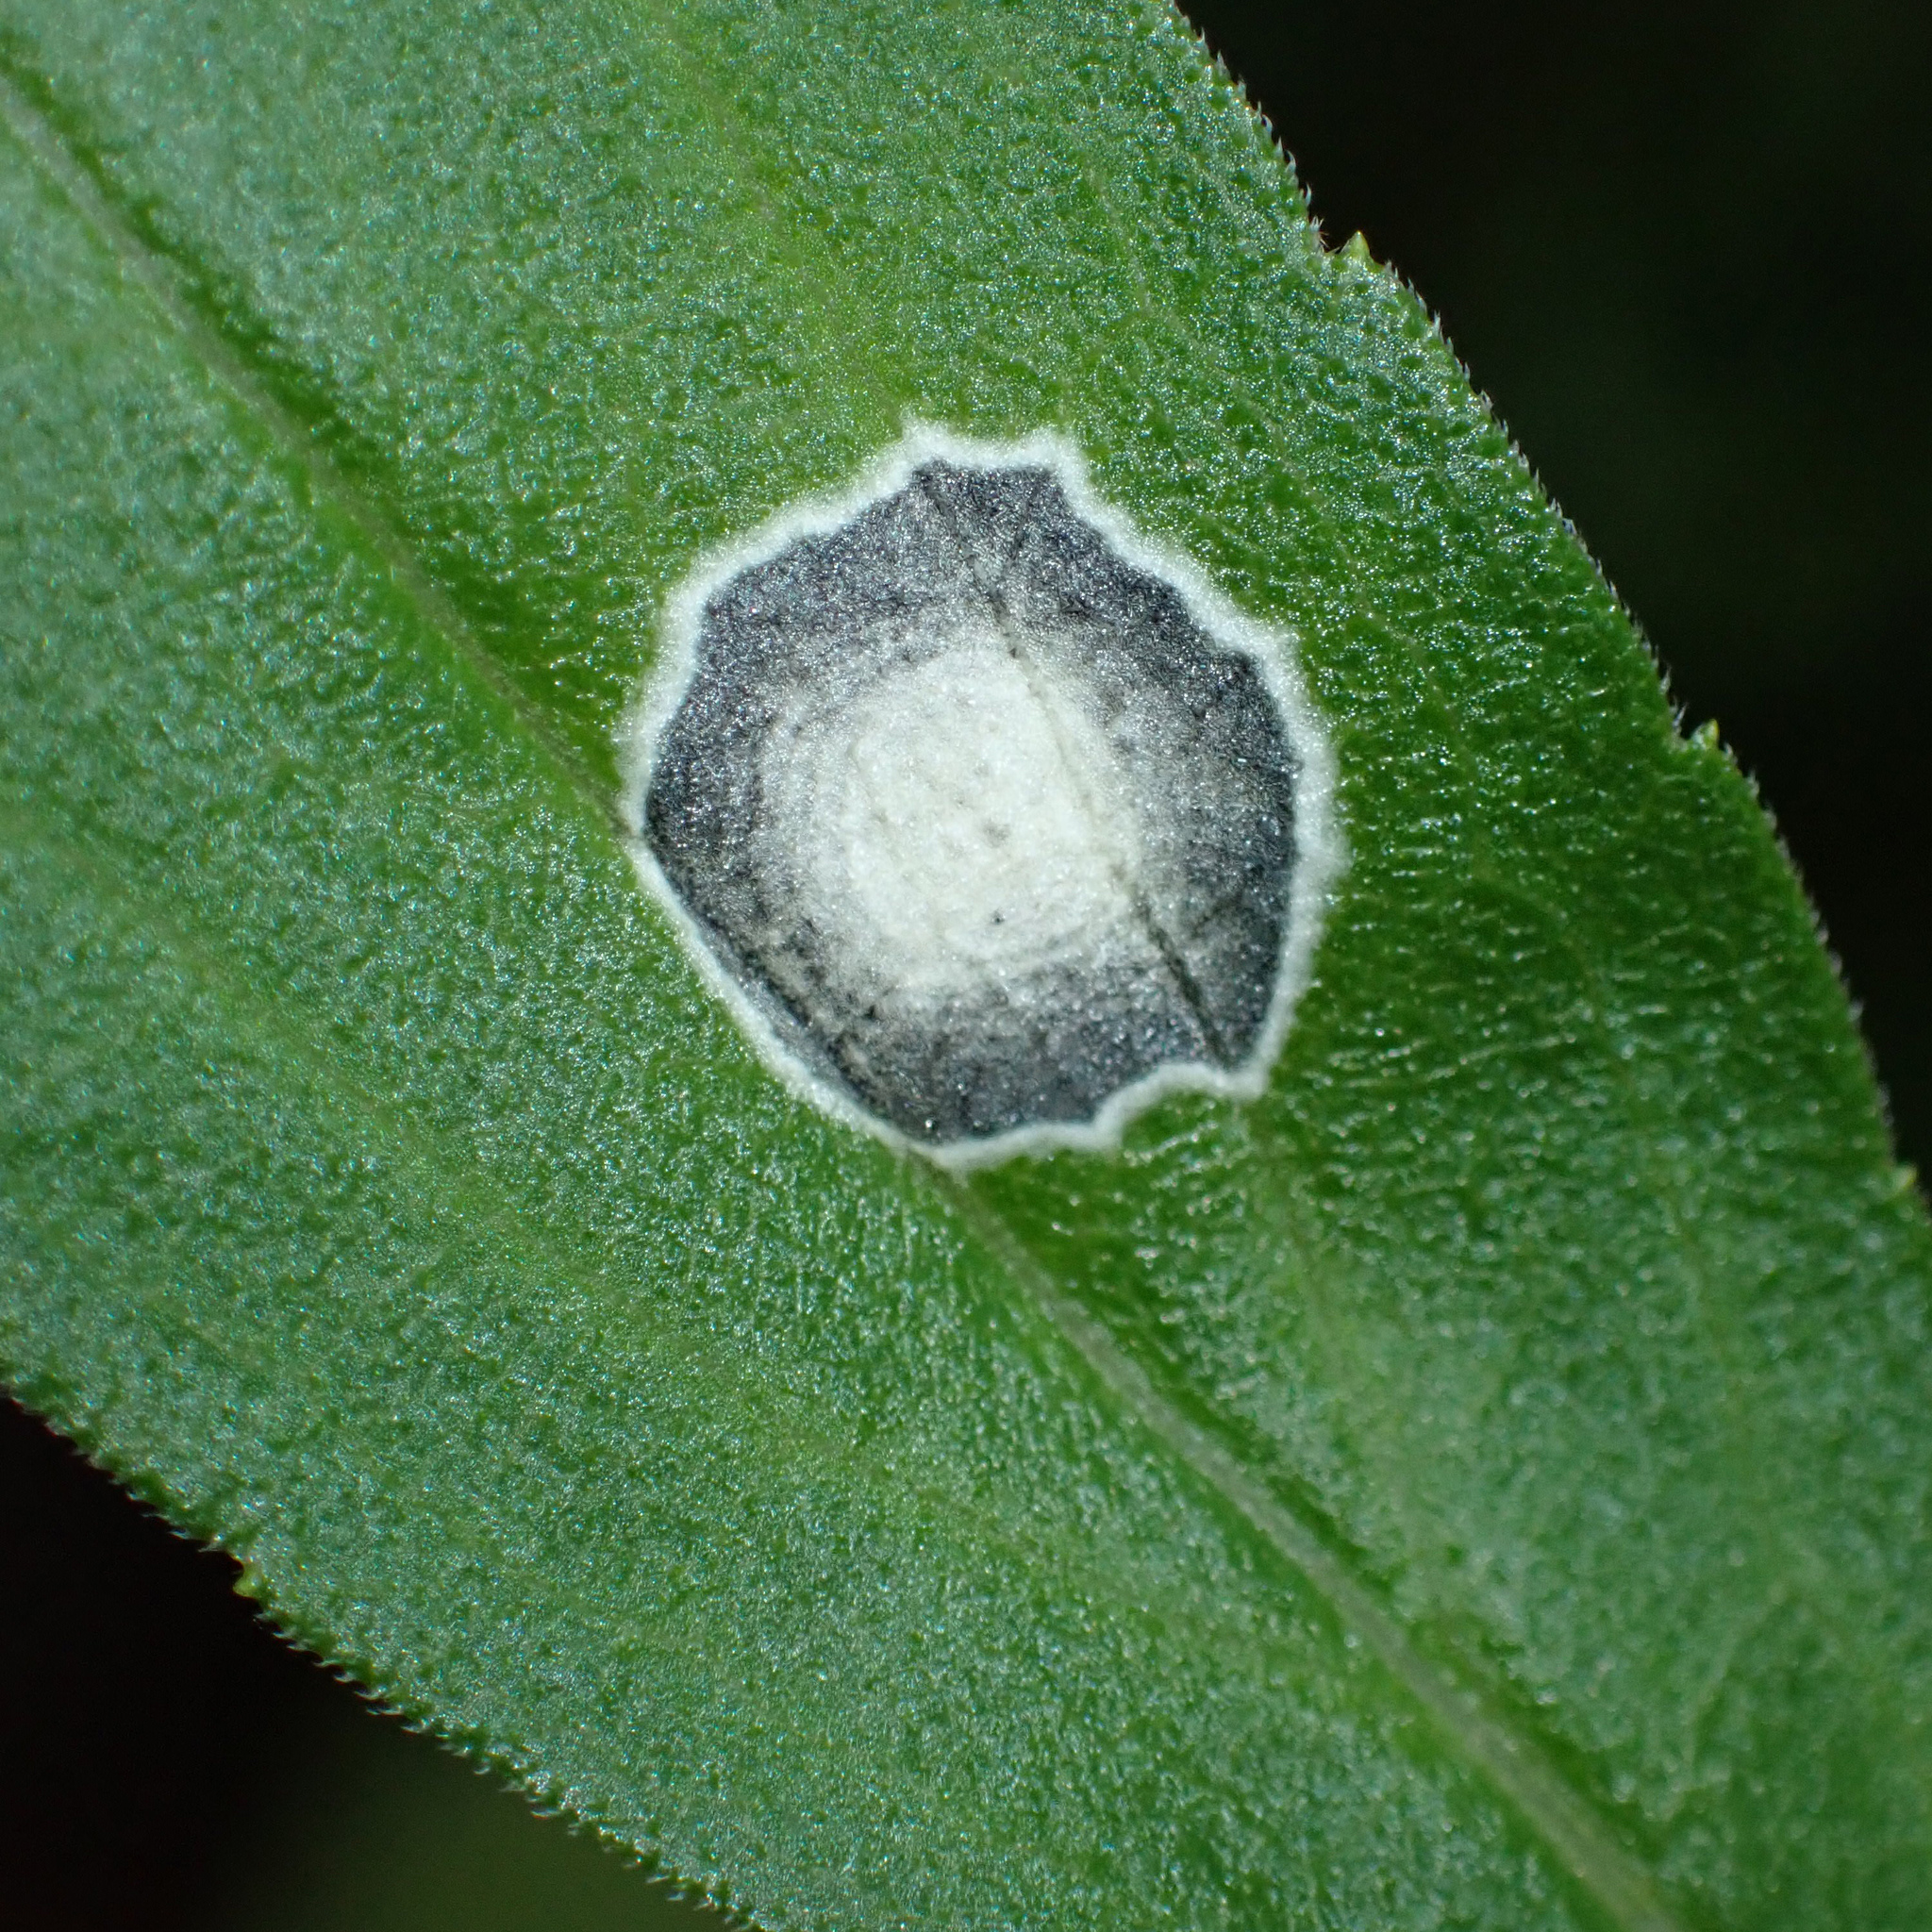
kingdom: Animalia
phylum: Arthropoda
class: Insecta
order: Diptera
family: Cecidomyiidae
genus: Asteromyia
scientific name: Asteromyia carbonifera
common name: Carbonifera goldenrod gall midge
